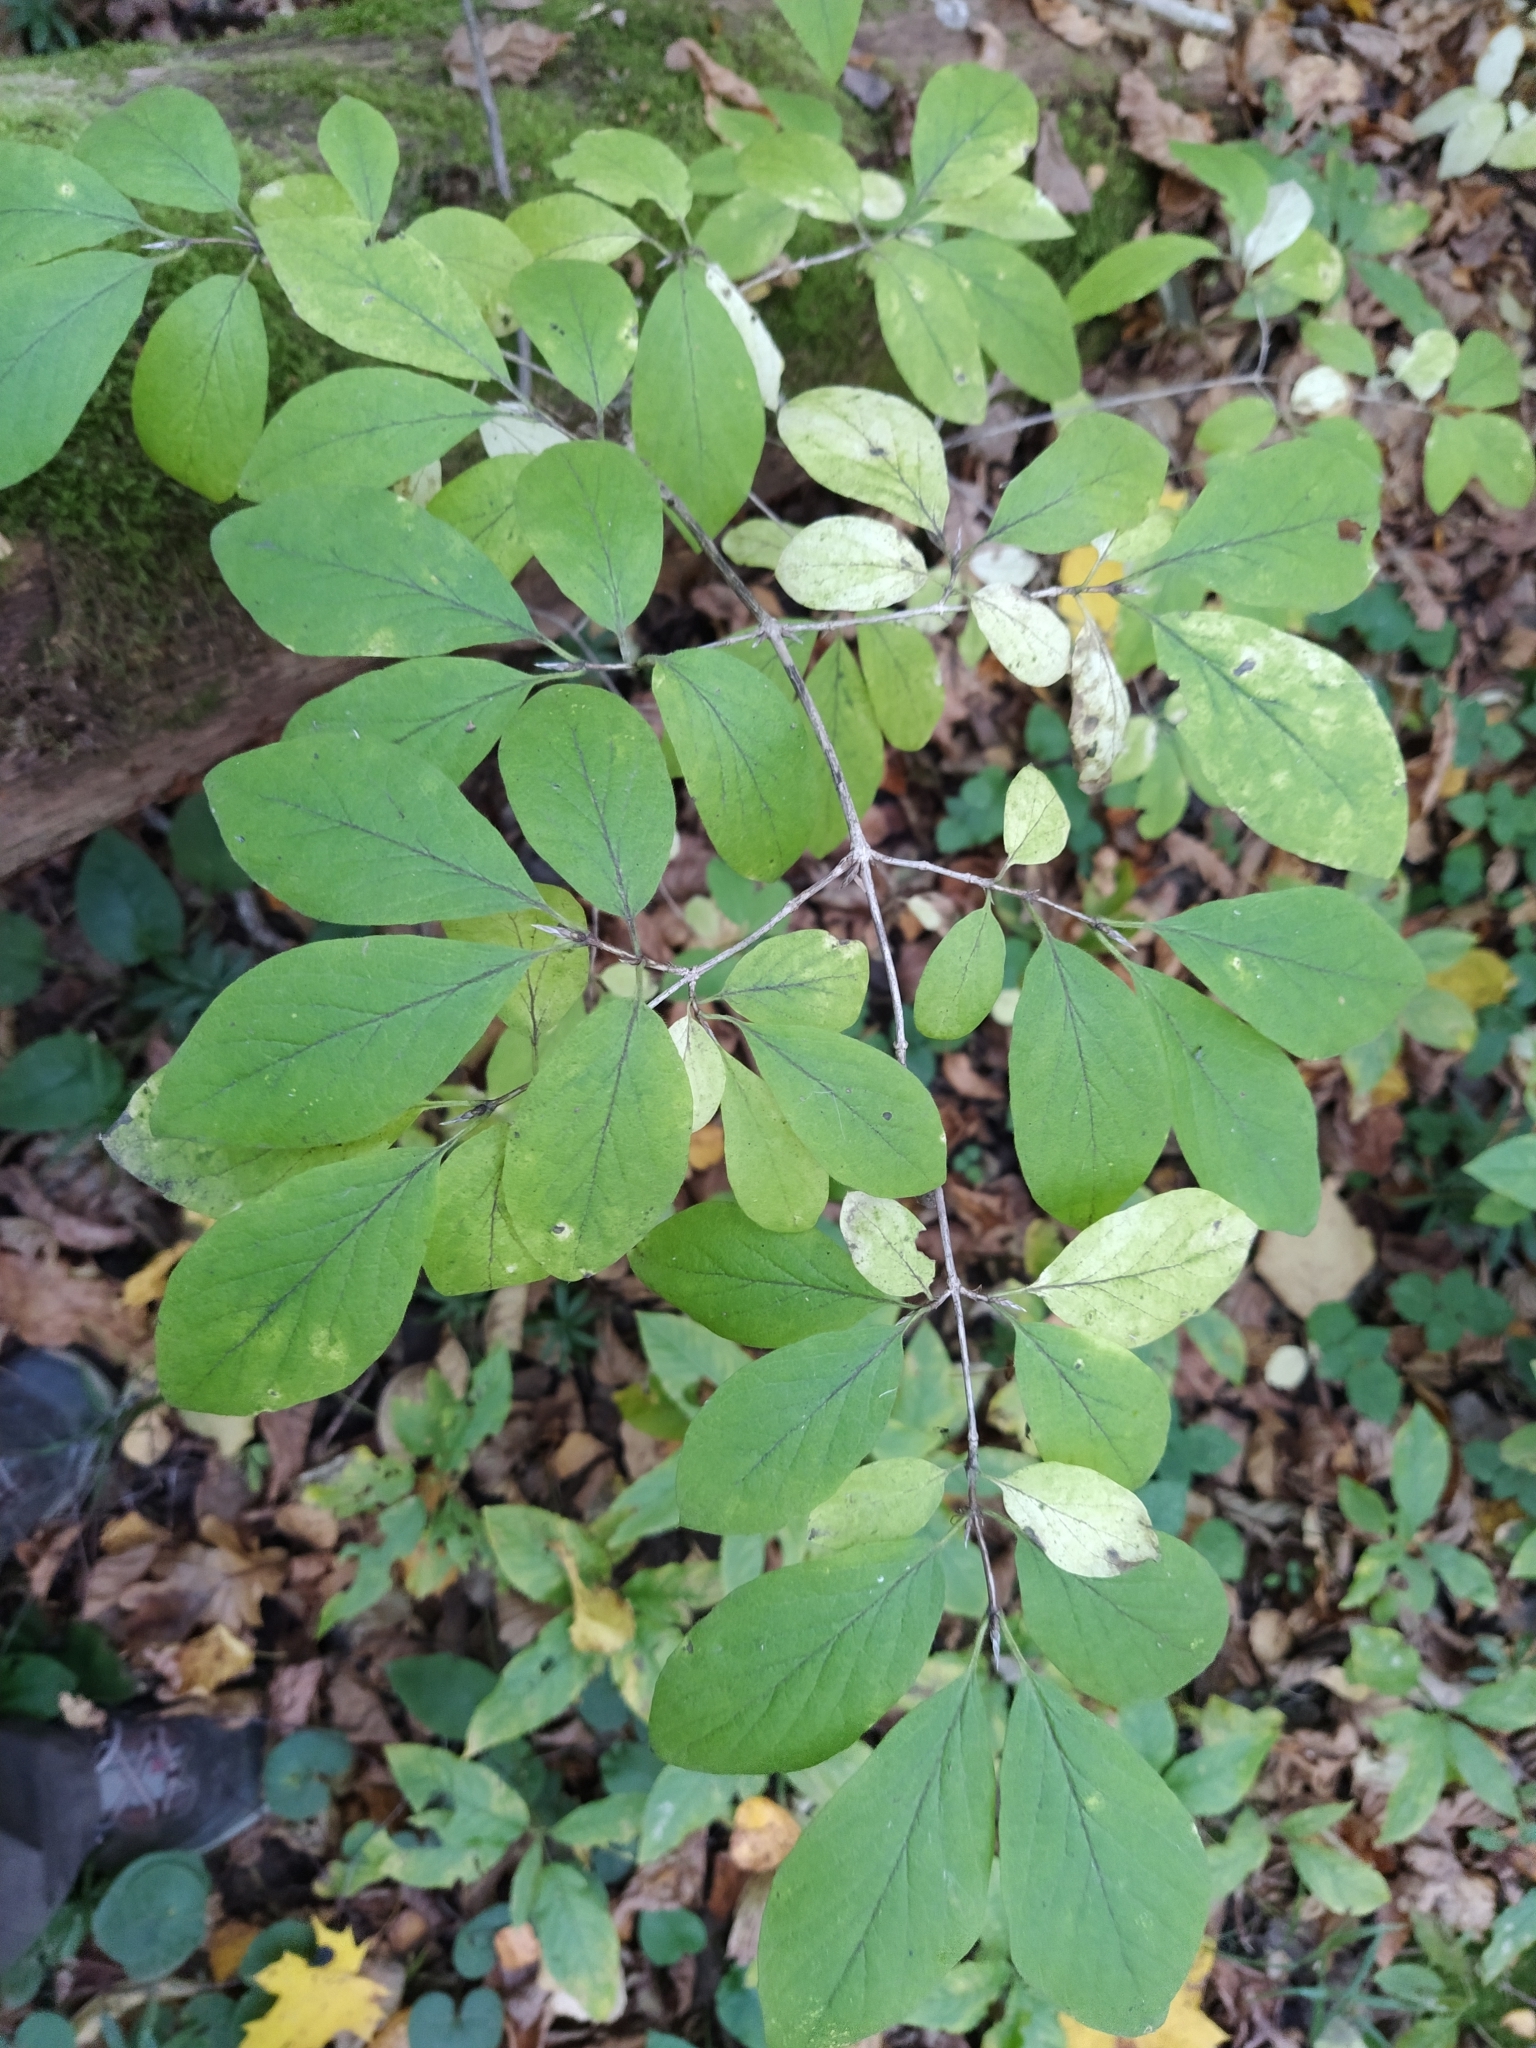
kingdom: Plantae
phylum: Tracheophyta
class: Magnoliopsida
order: Dipsacales
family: Caprifoliaceae
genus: Lonicera
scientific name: Lonicera xylosteum
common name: Fly honeysuckle
